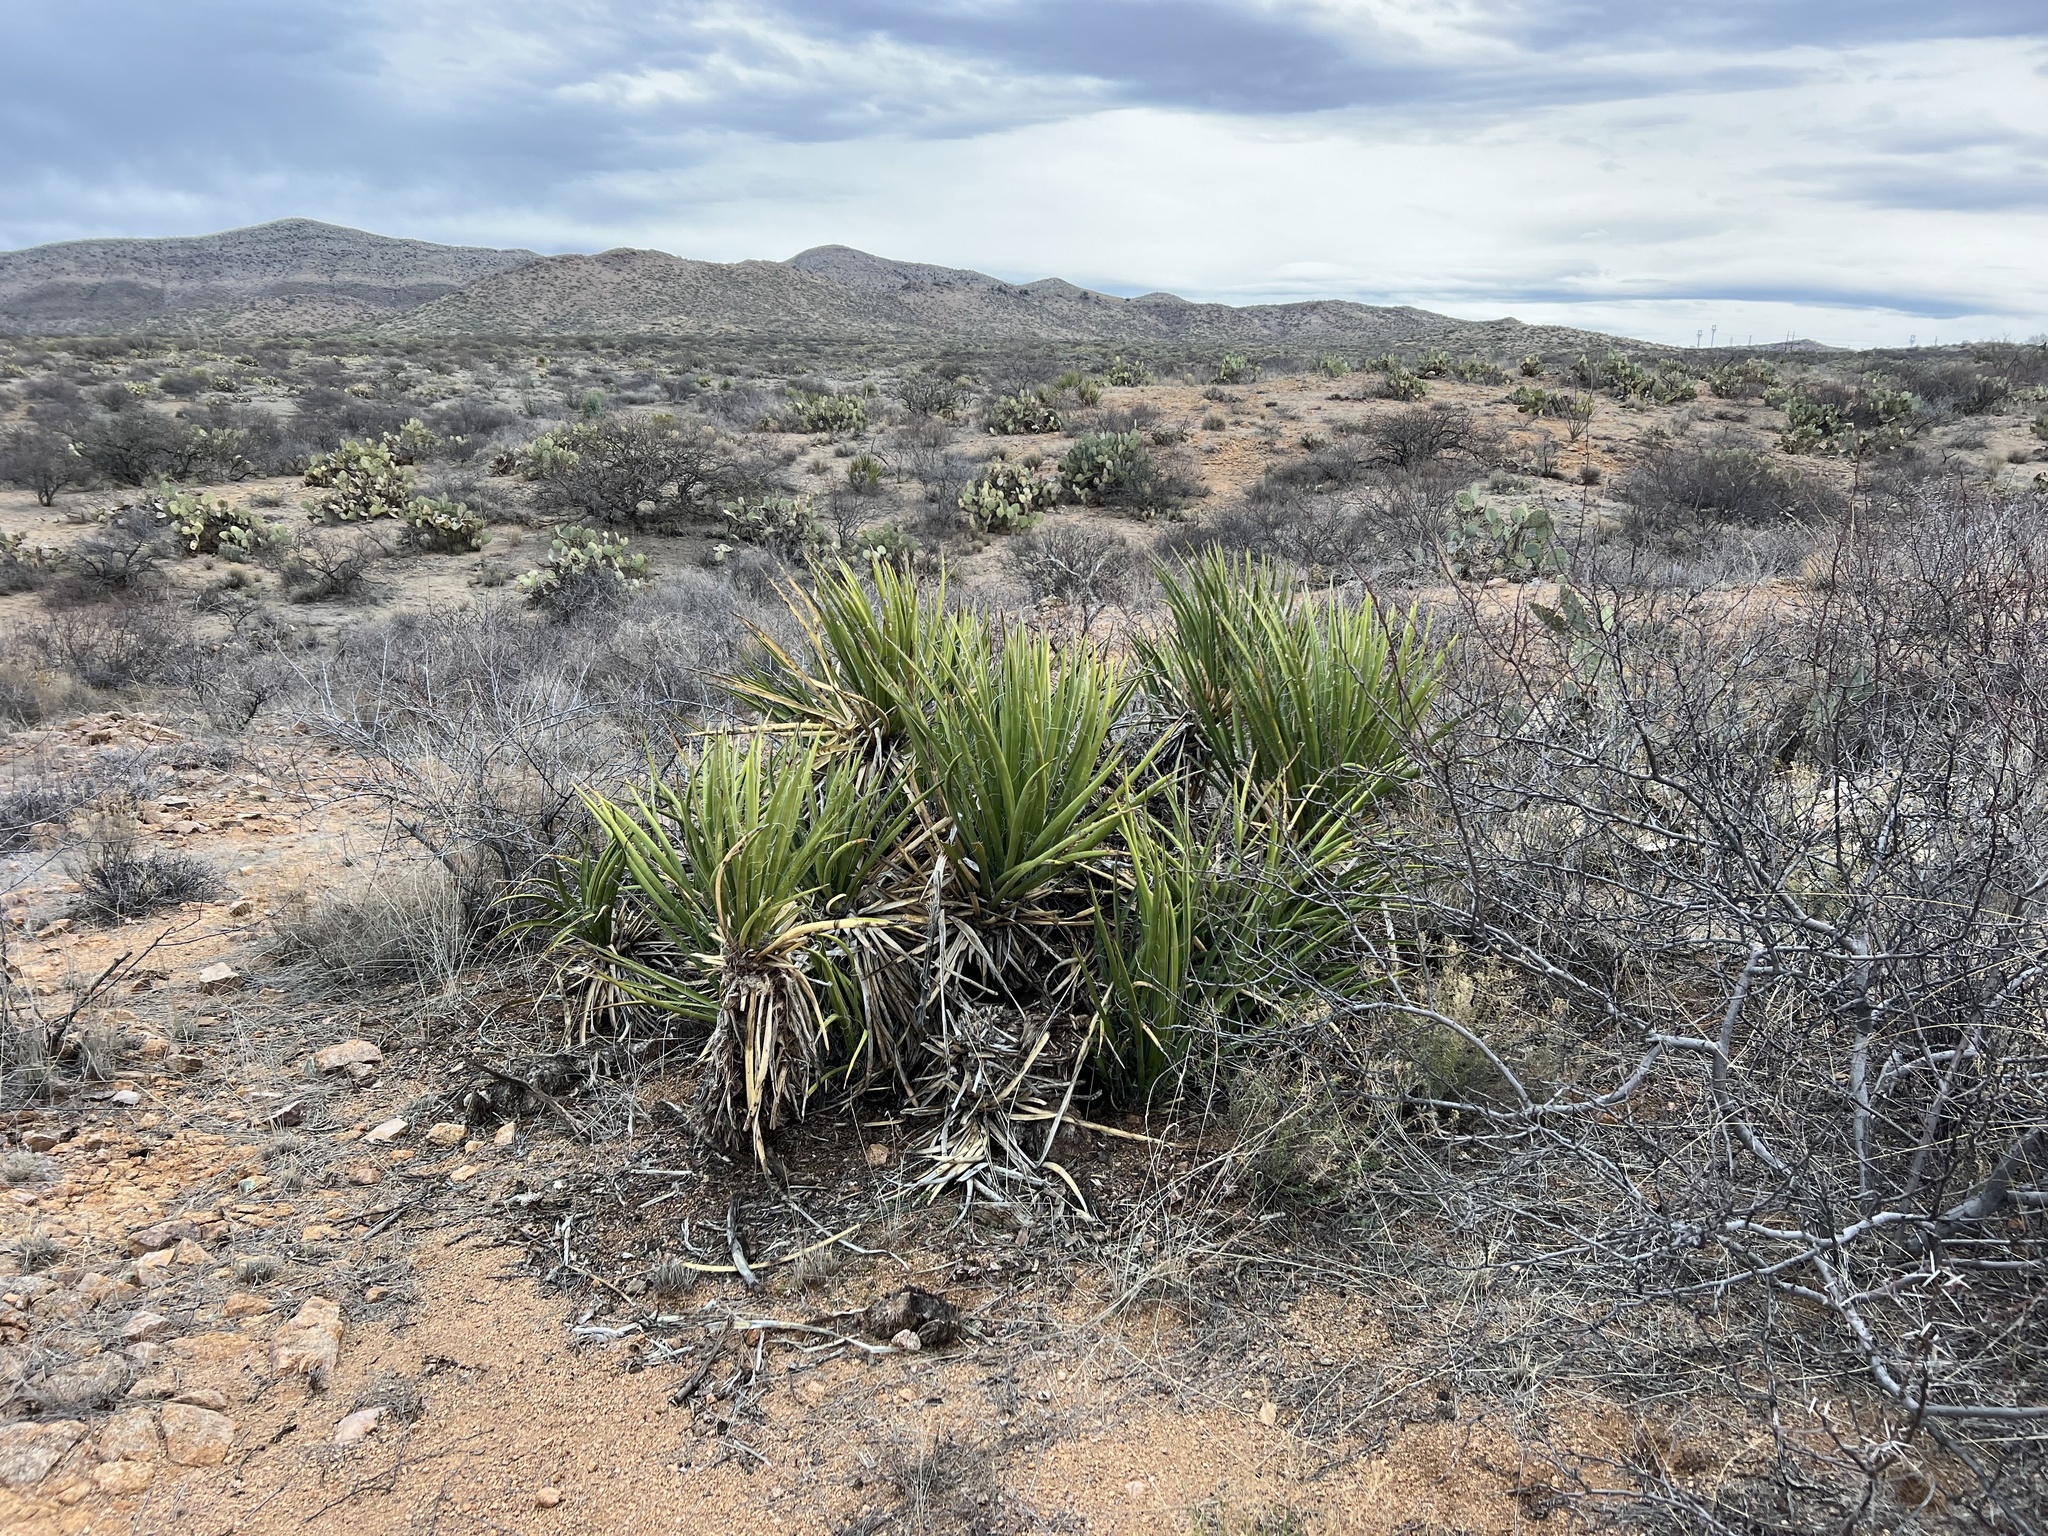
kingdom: Plantae
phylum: Tracheophyta
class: Liliopsida
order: Asparagales
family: Asparagaceae
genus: Yucca
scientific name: Yucca baccata
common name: Banana yucca
